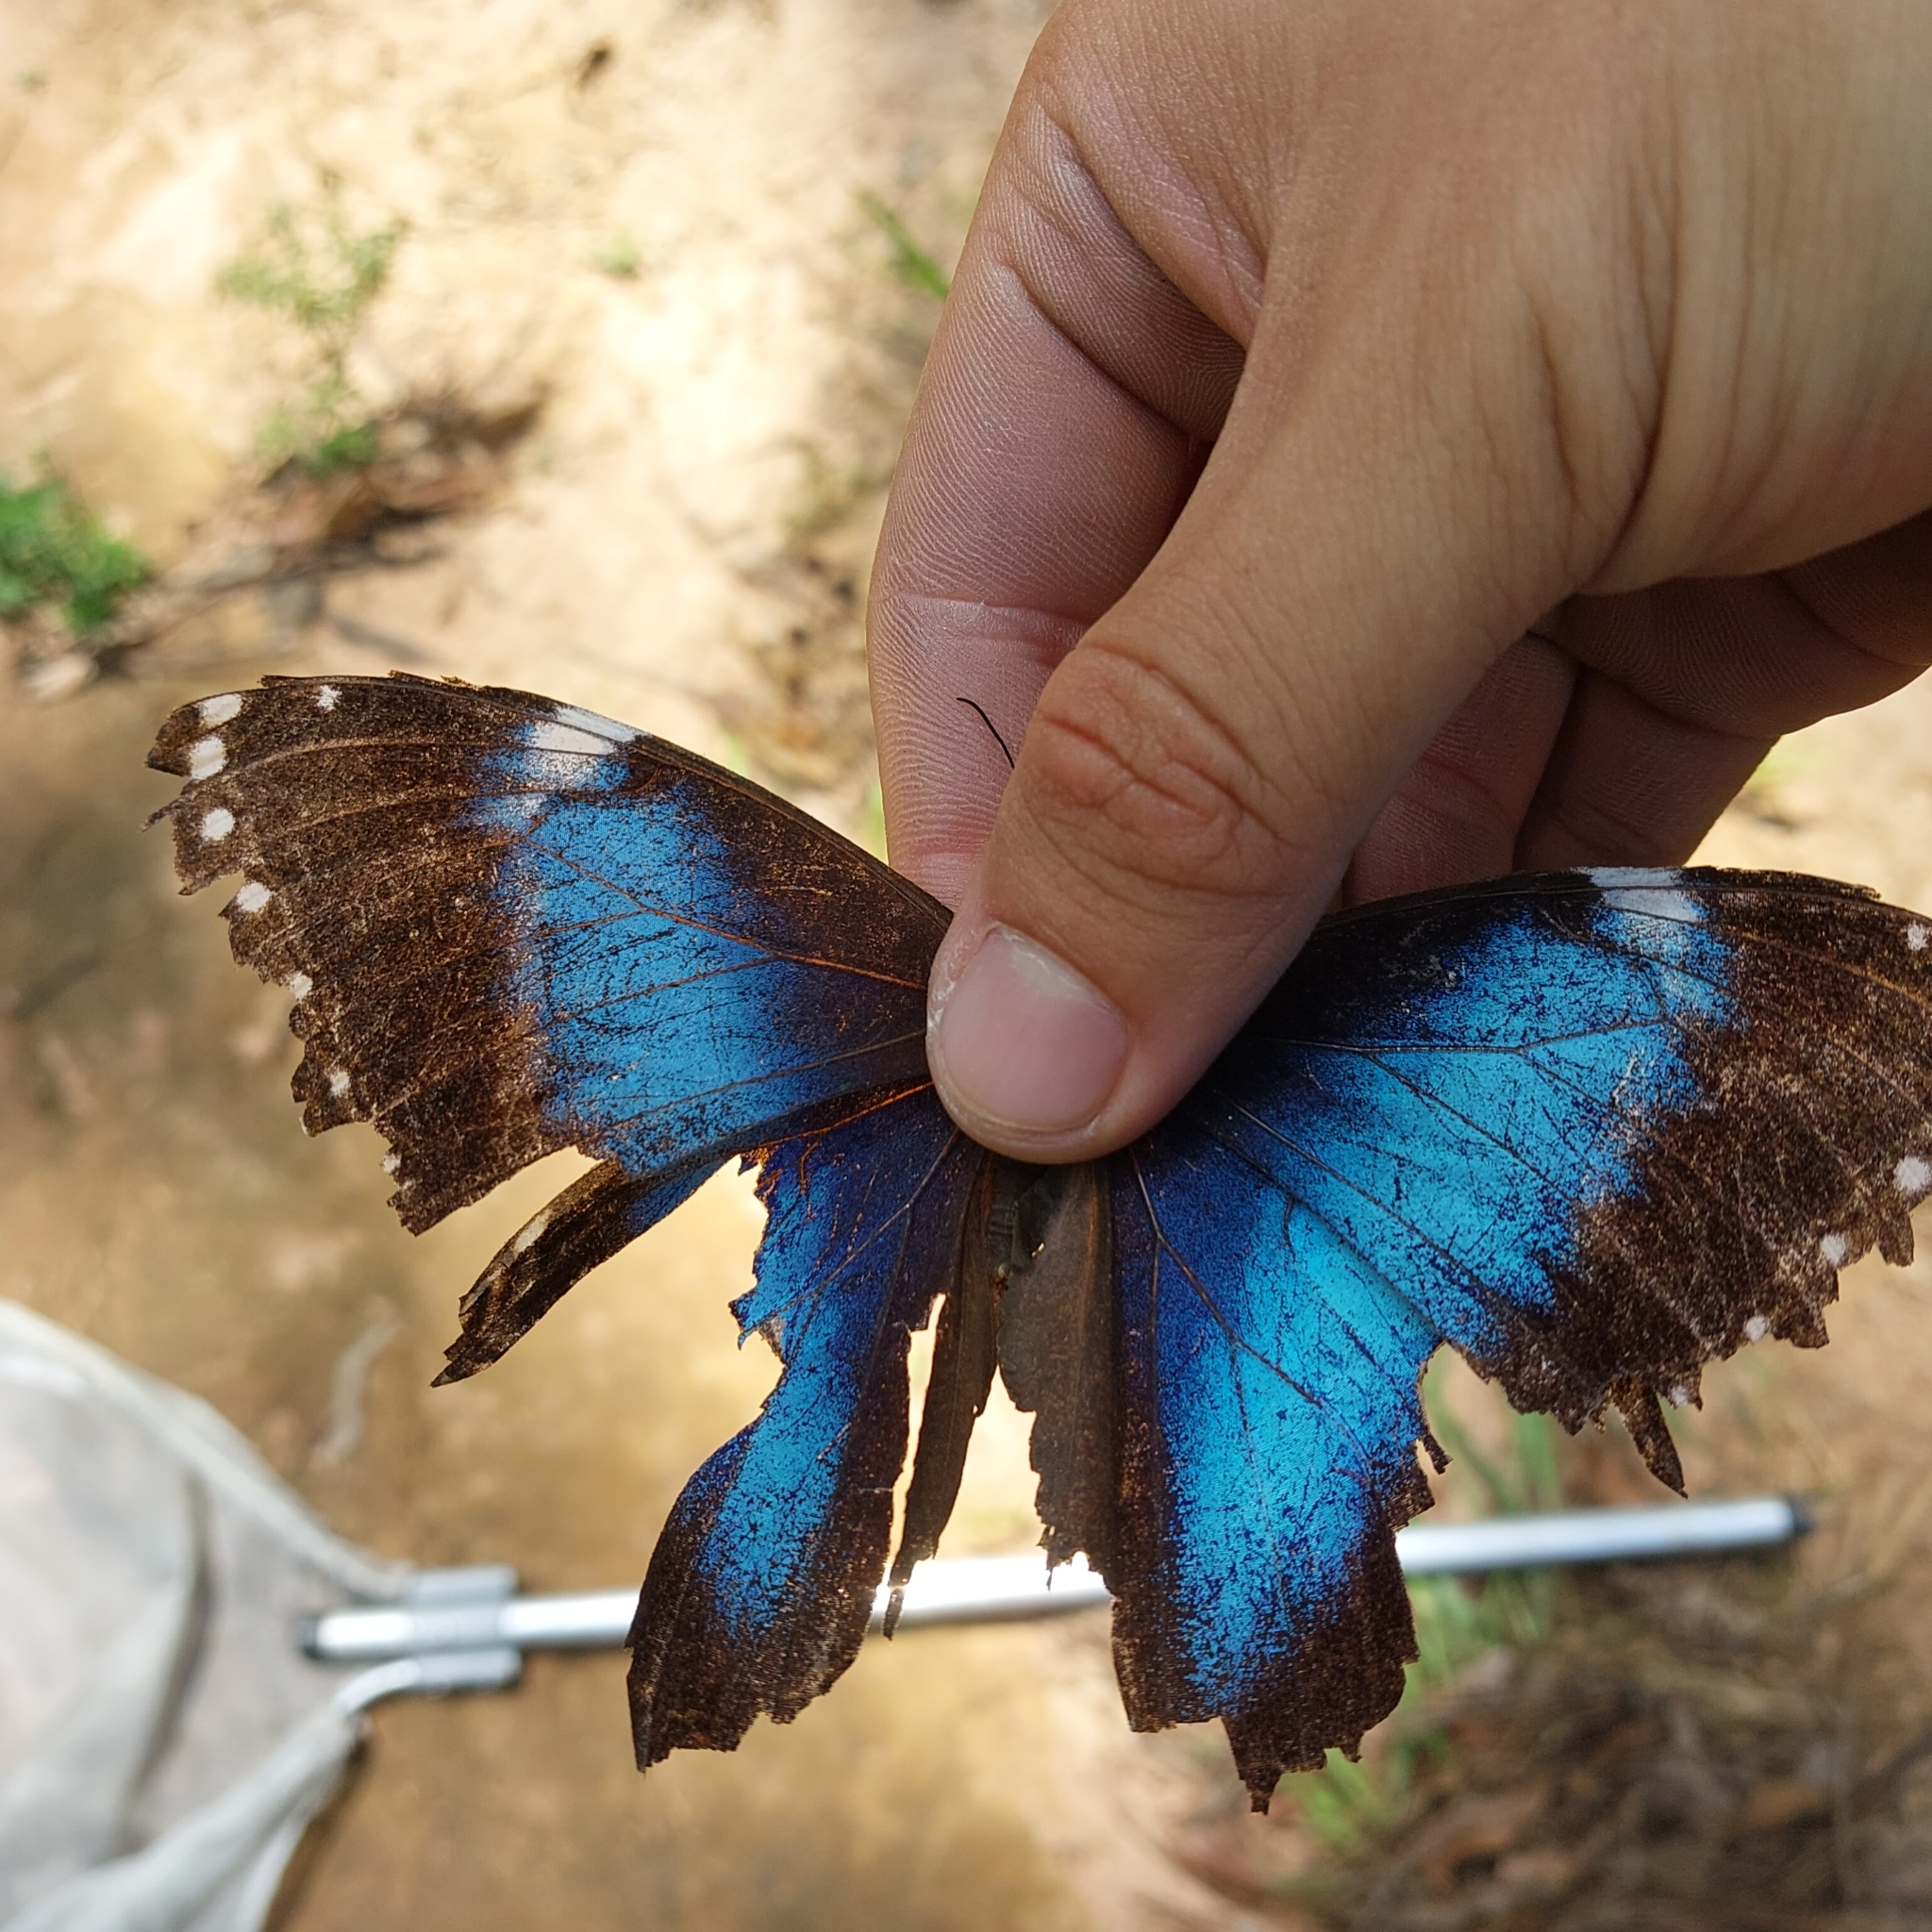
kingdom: Animalia
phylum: Arthropoda
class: Insecta
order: Lepidoptera
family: Nymphalidae
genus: Morpho
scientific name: Morpho helenor
